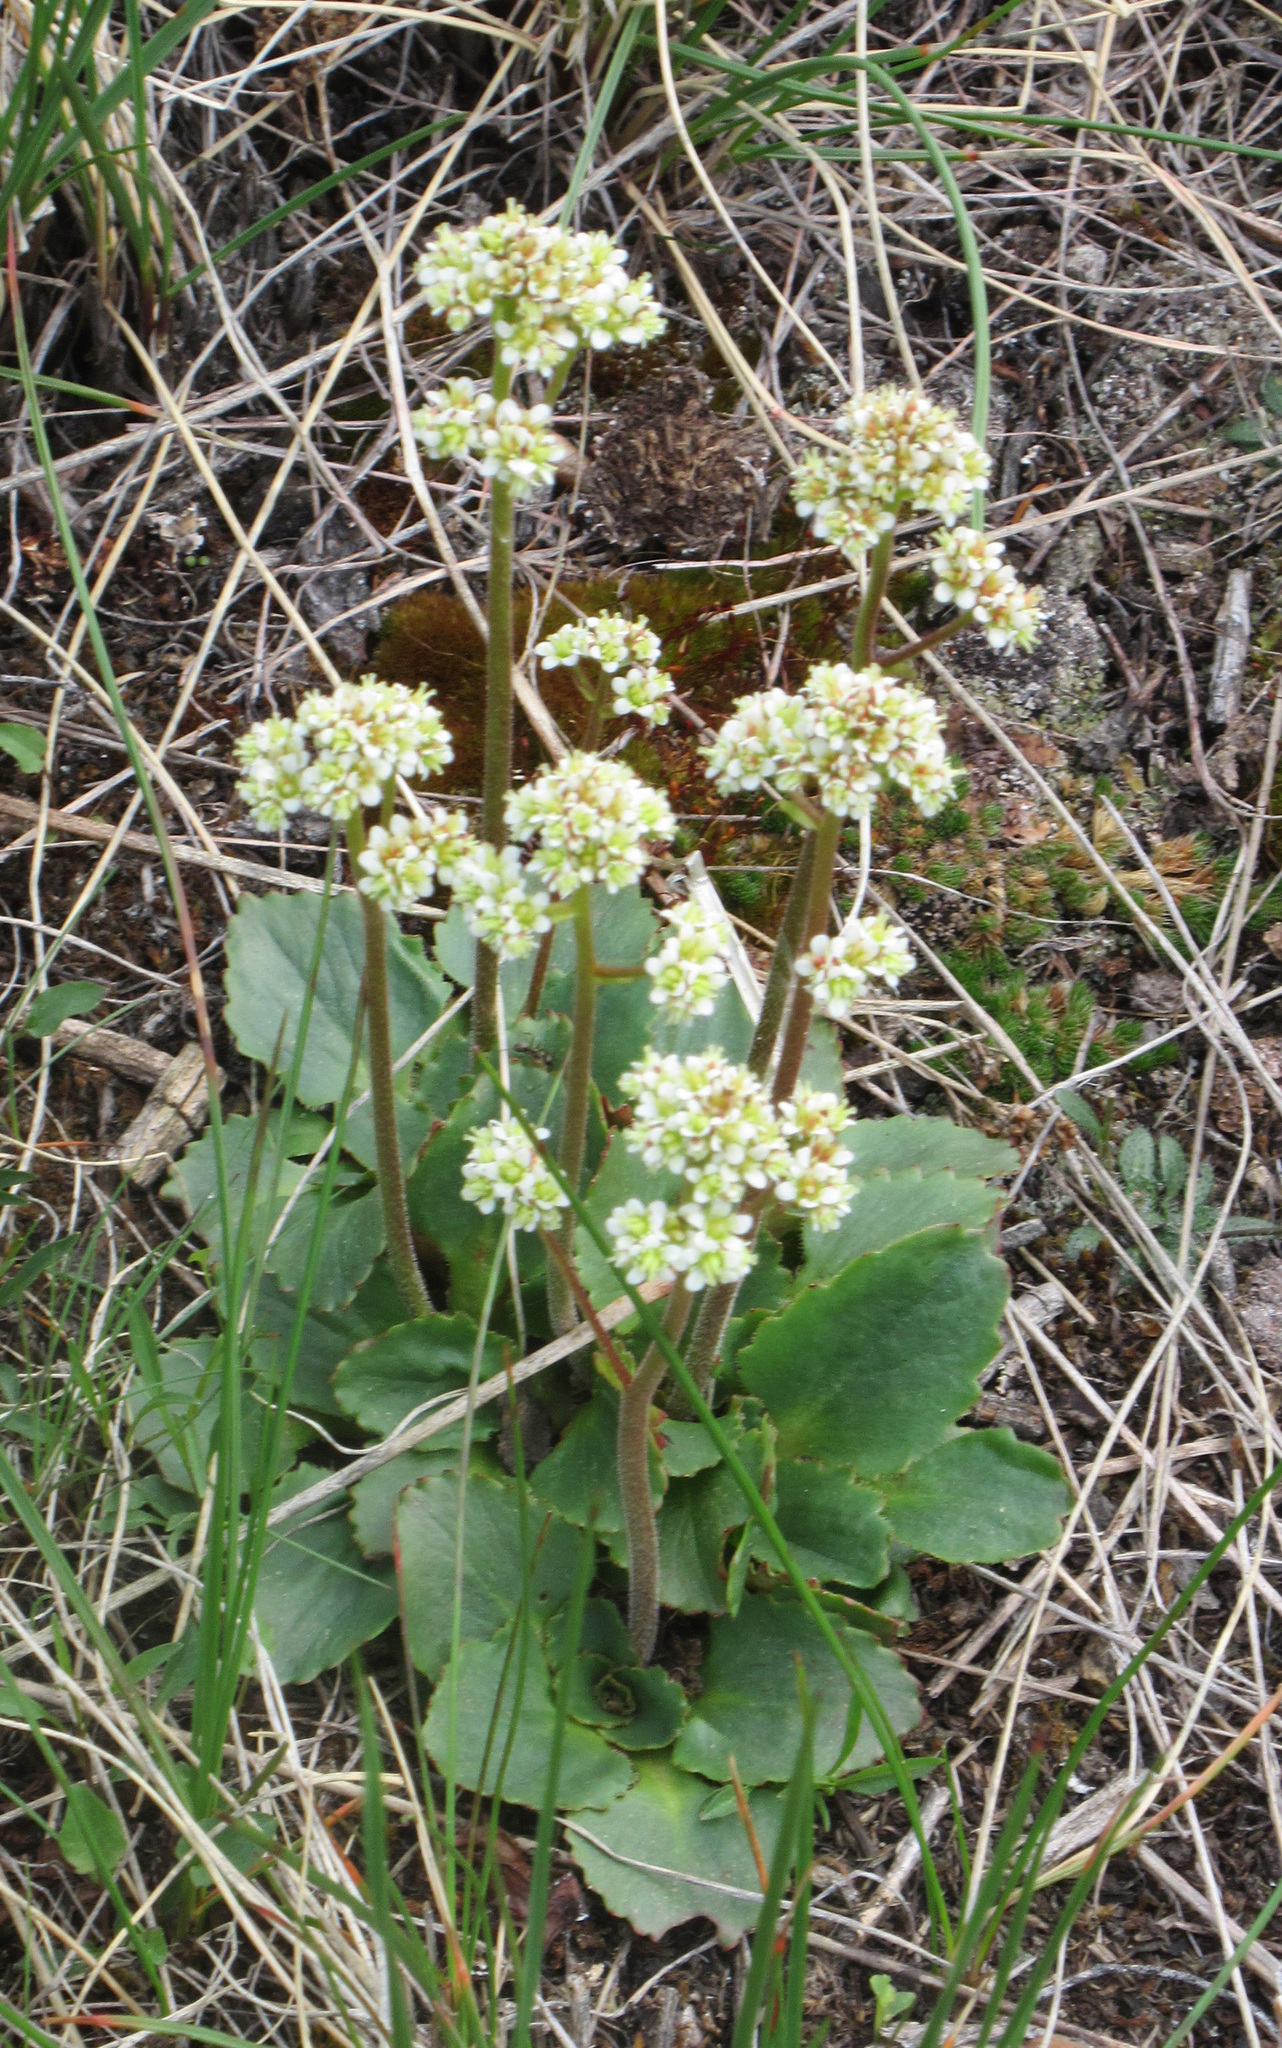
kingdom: Plantae
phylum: Tracheophyta
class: Magnoliopsida
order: Saxifragales
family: Saxifragaceae
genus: Micranthes
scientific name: Micranthes occidentalis
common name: Alberta saxifrage
